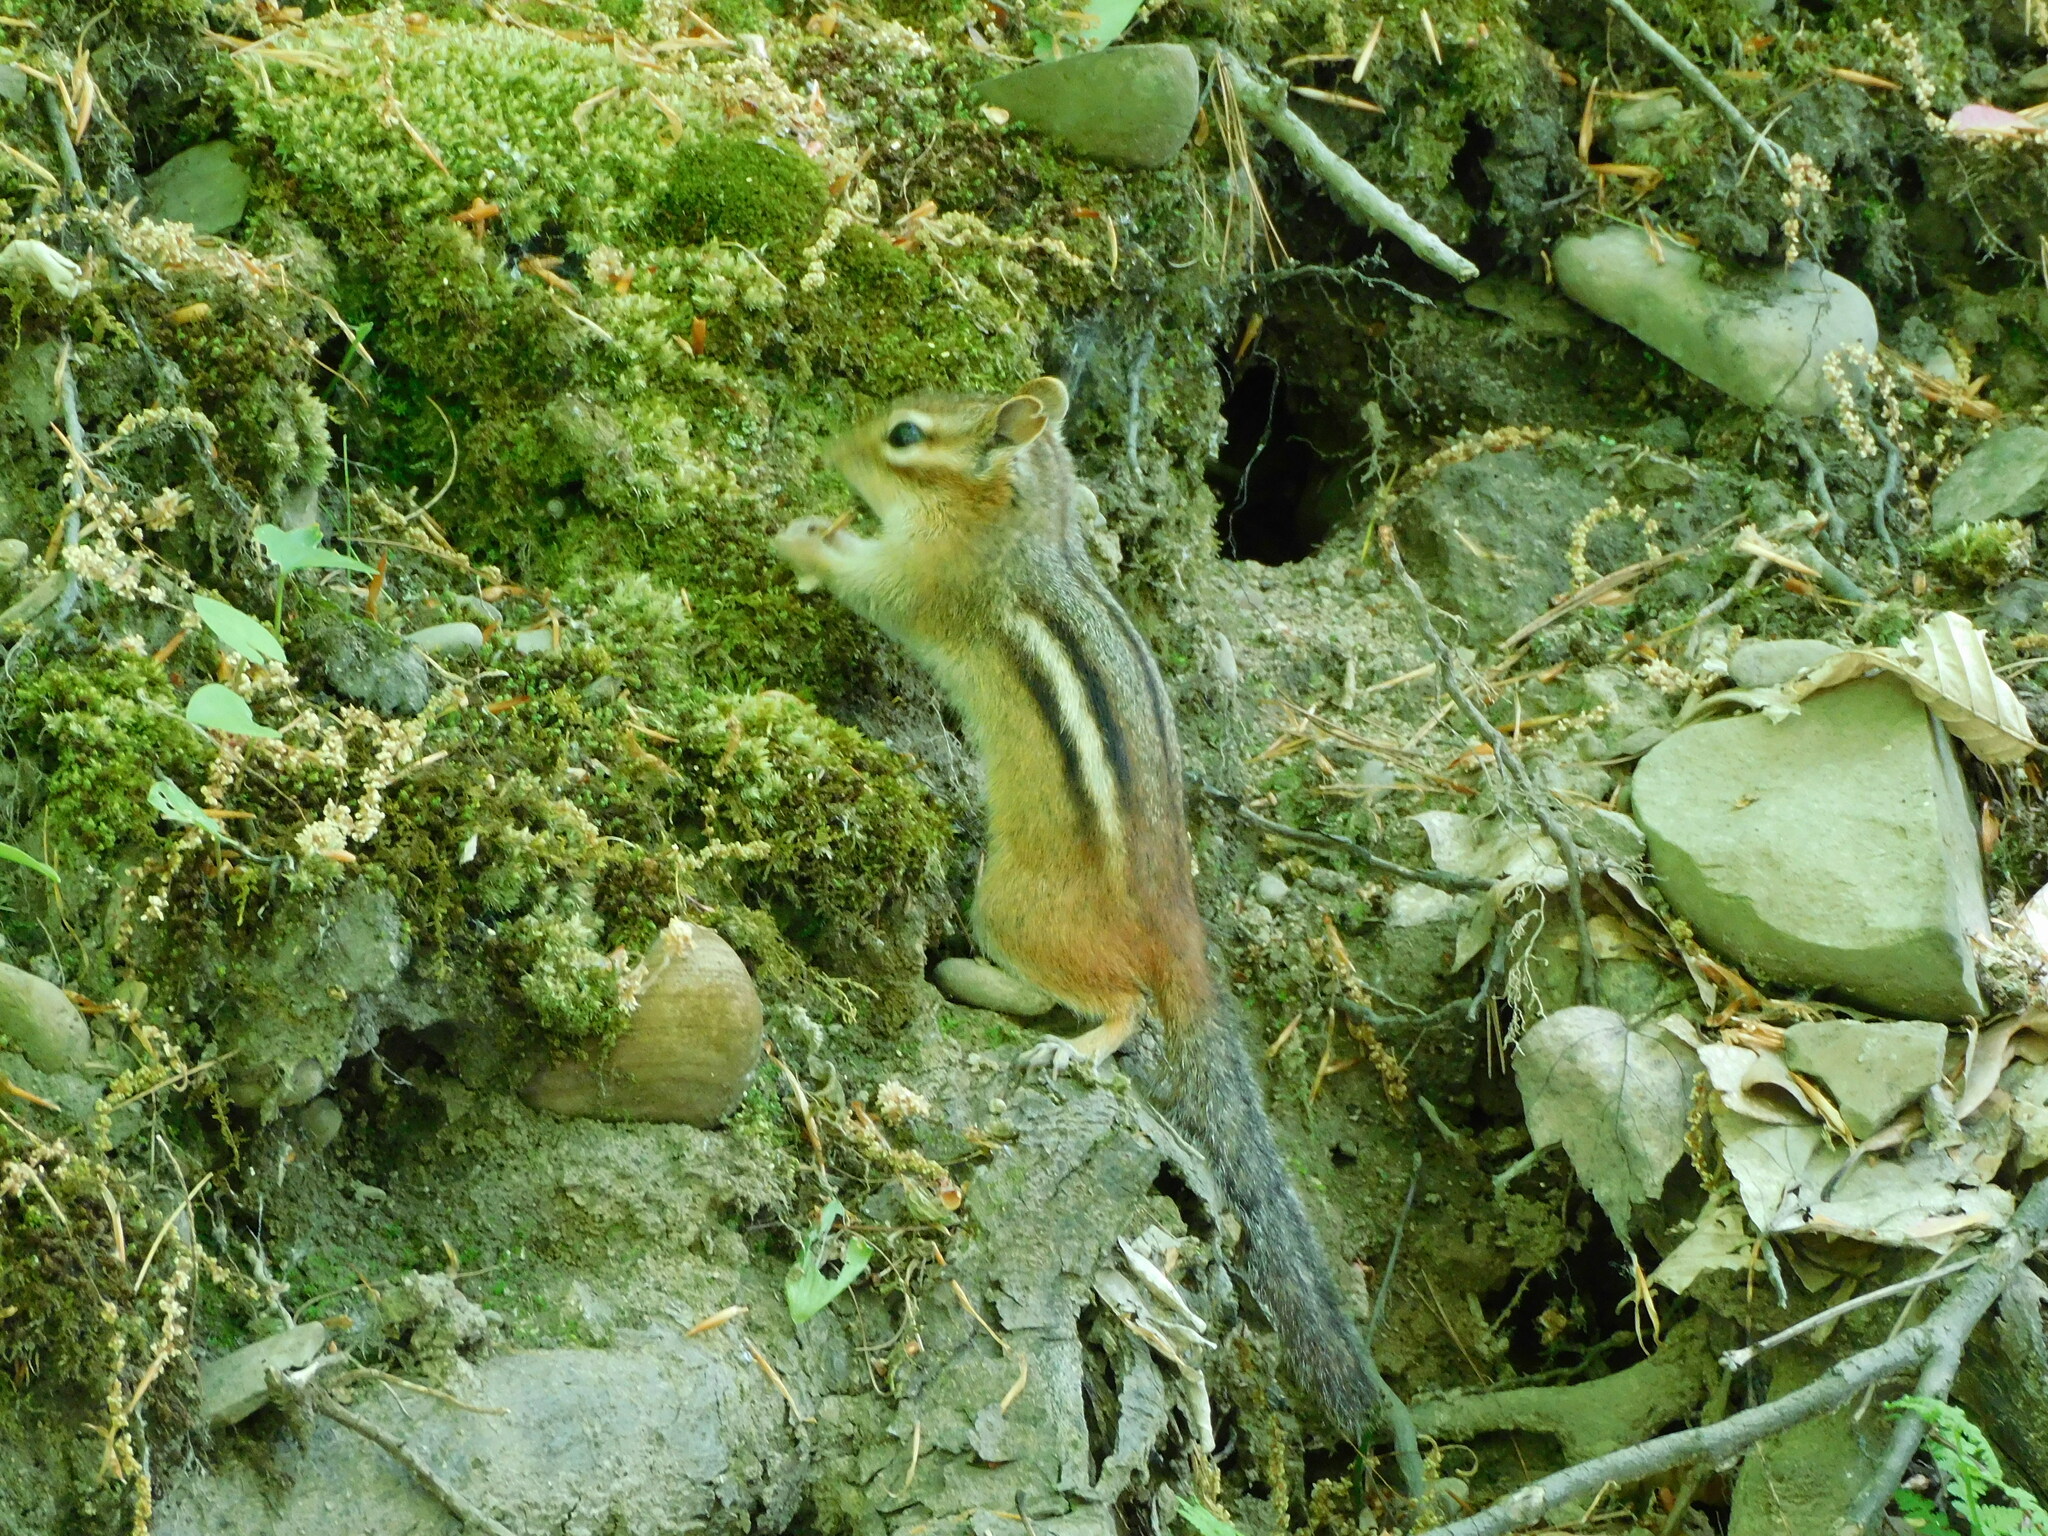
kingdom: Animalia
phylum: Chordata
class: Mammalia
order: Rodentia
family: Sciuridae
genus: Tamias
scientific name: Tamias striatus
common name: Eastern chipmunk
